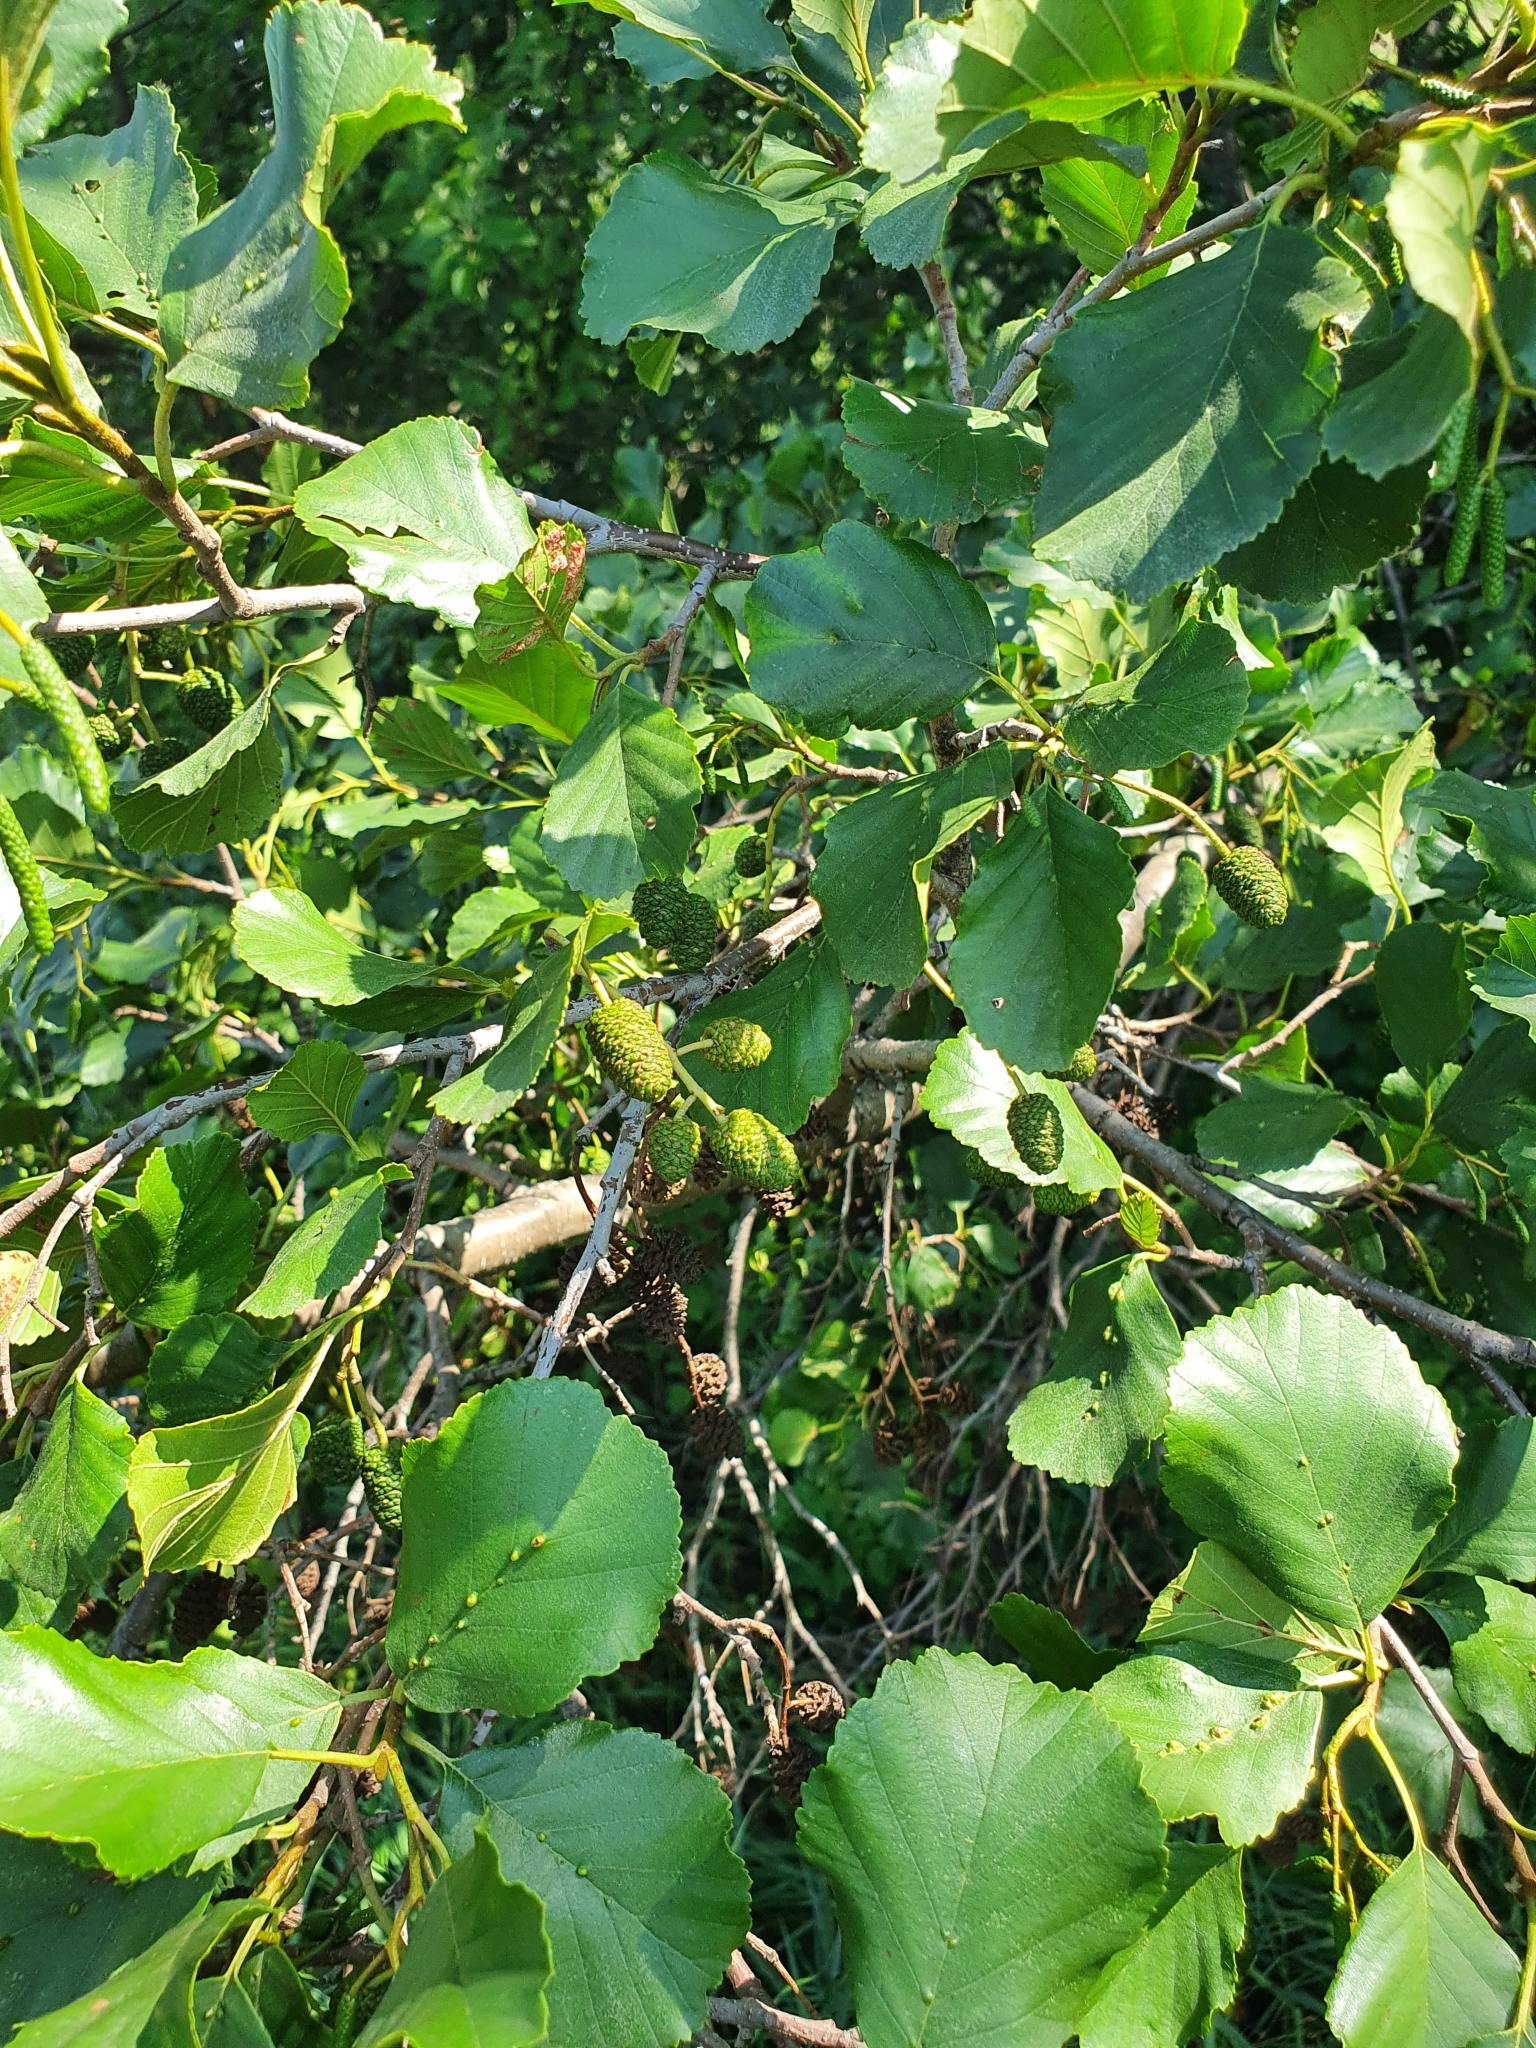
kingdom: Plantae
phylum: Tracheophyta
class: Magnoliopsida
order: Fagales
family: Betulaceae
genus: Alnus
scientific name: Alnus glutinosa
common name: Black alder
